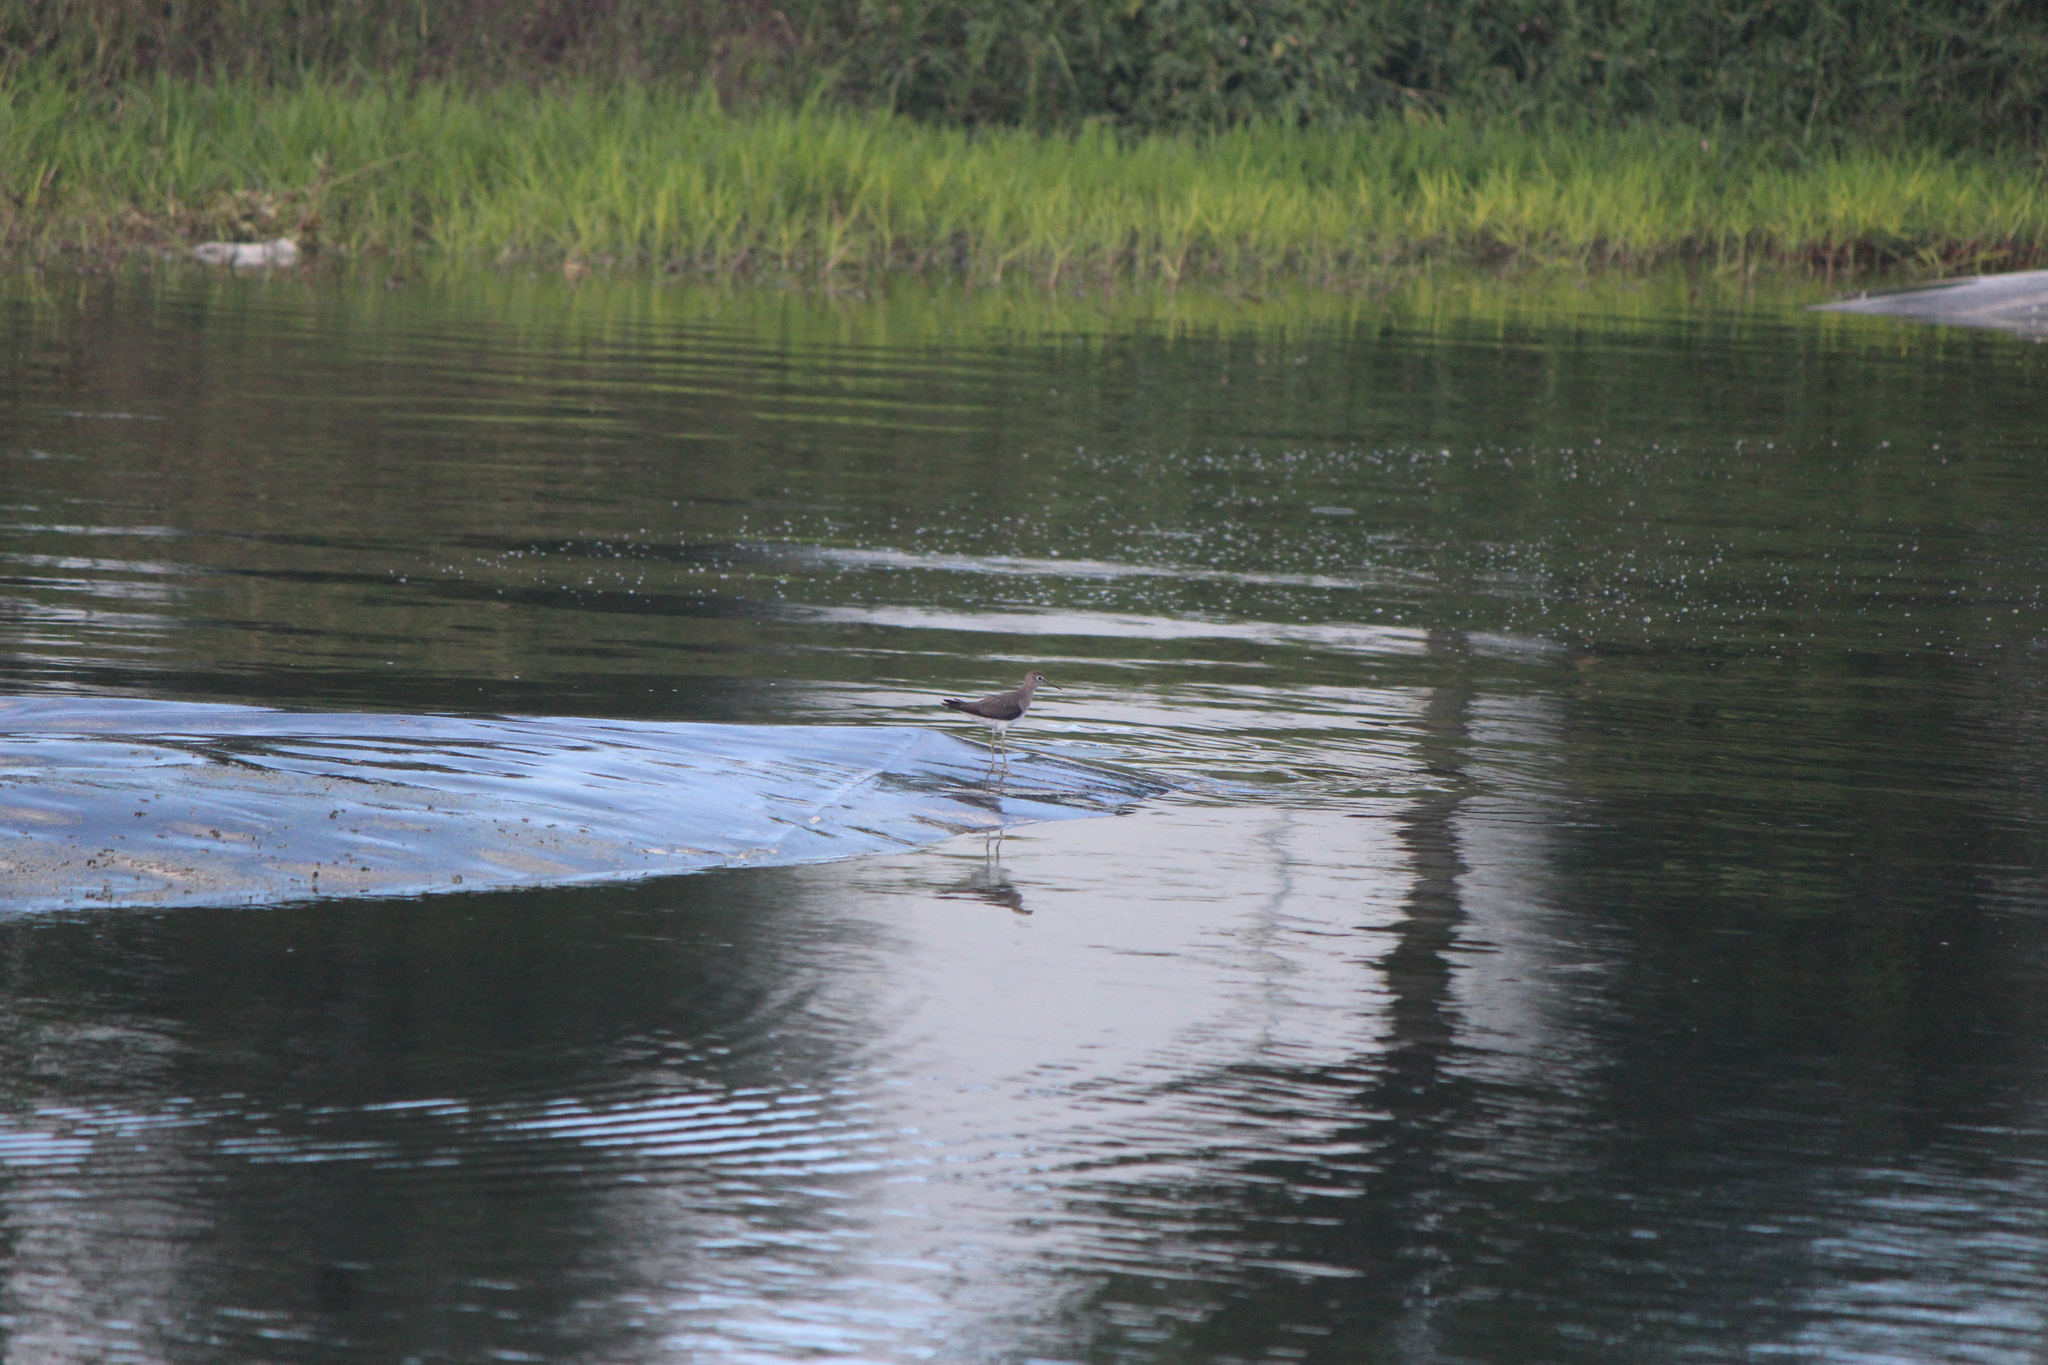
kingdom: Animalia
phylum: Chordata
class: Aves
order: Charadriiformes
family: Scolopacidae
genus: Tringa
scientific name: Tringa solitaria
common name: Solitary sandpiper
